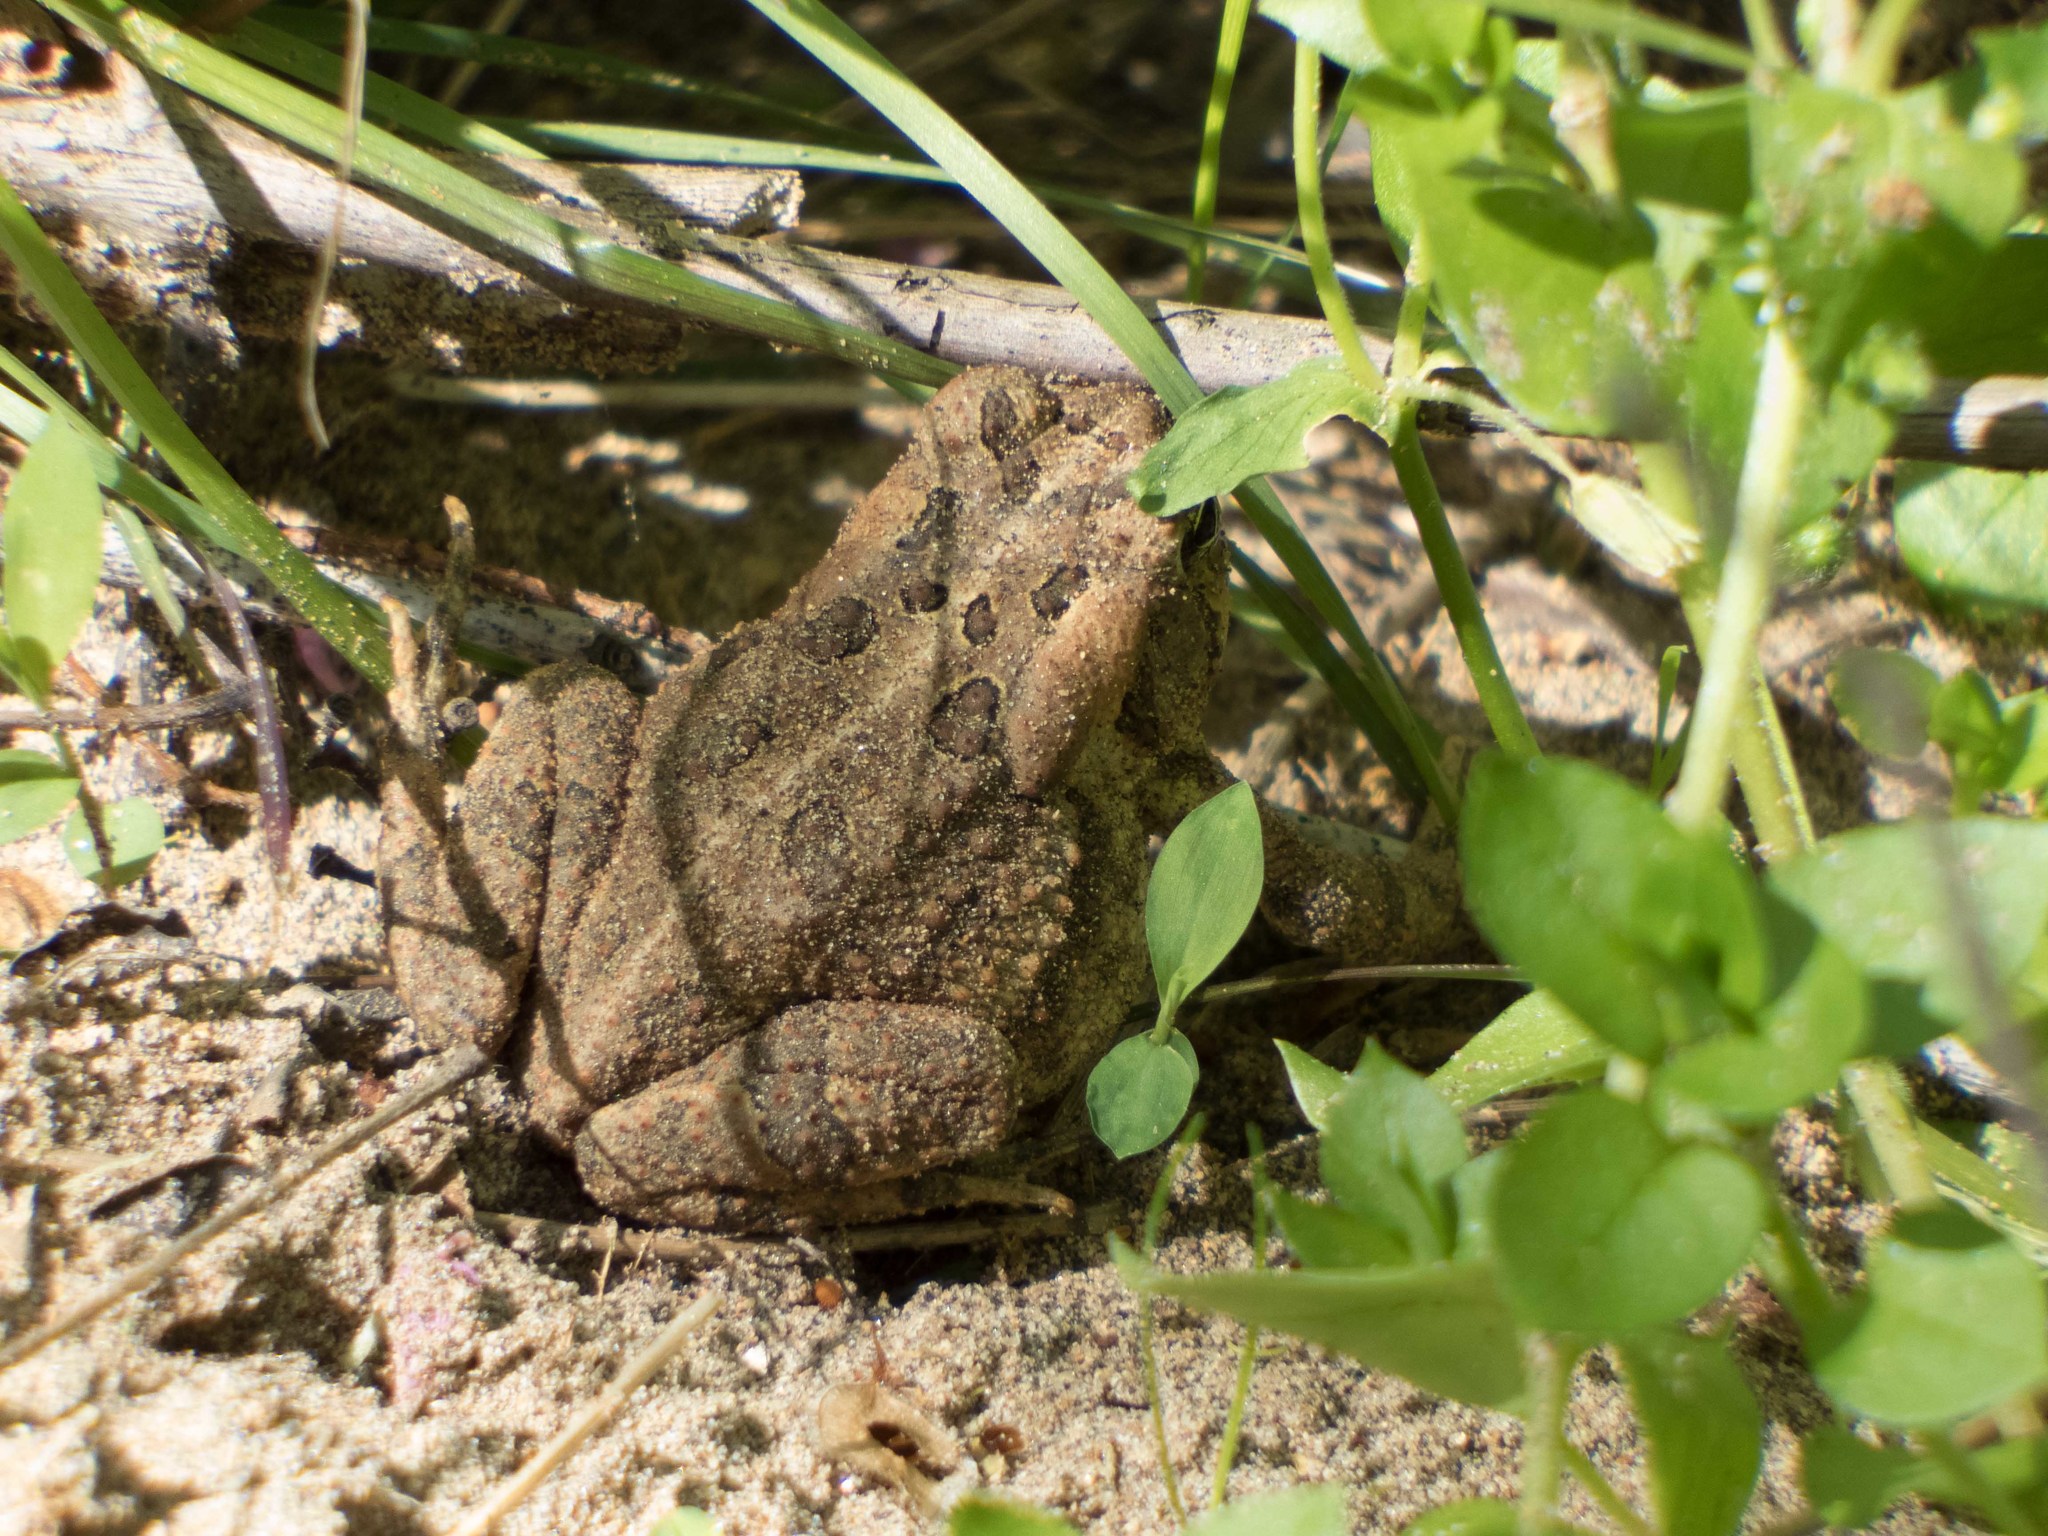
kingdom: Animalia
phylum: Chordata
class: Amphibia
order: Anura
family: Bufonidae
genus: Anaxyrus
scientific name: Anaxyrus fowleri
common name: Fowler's toad
